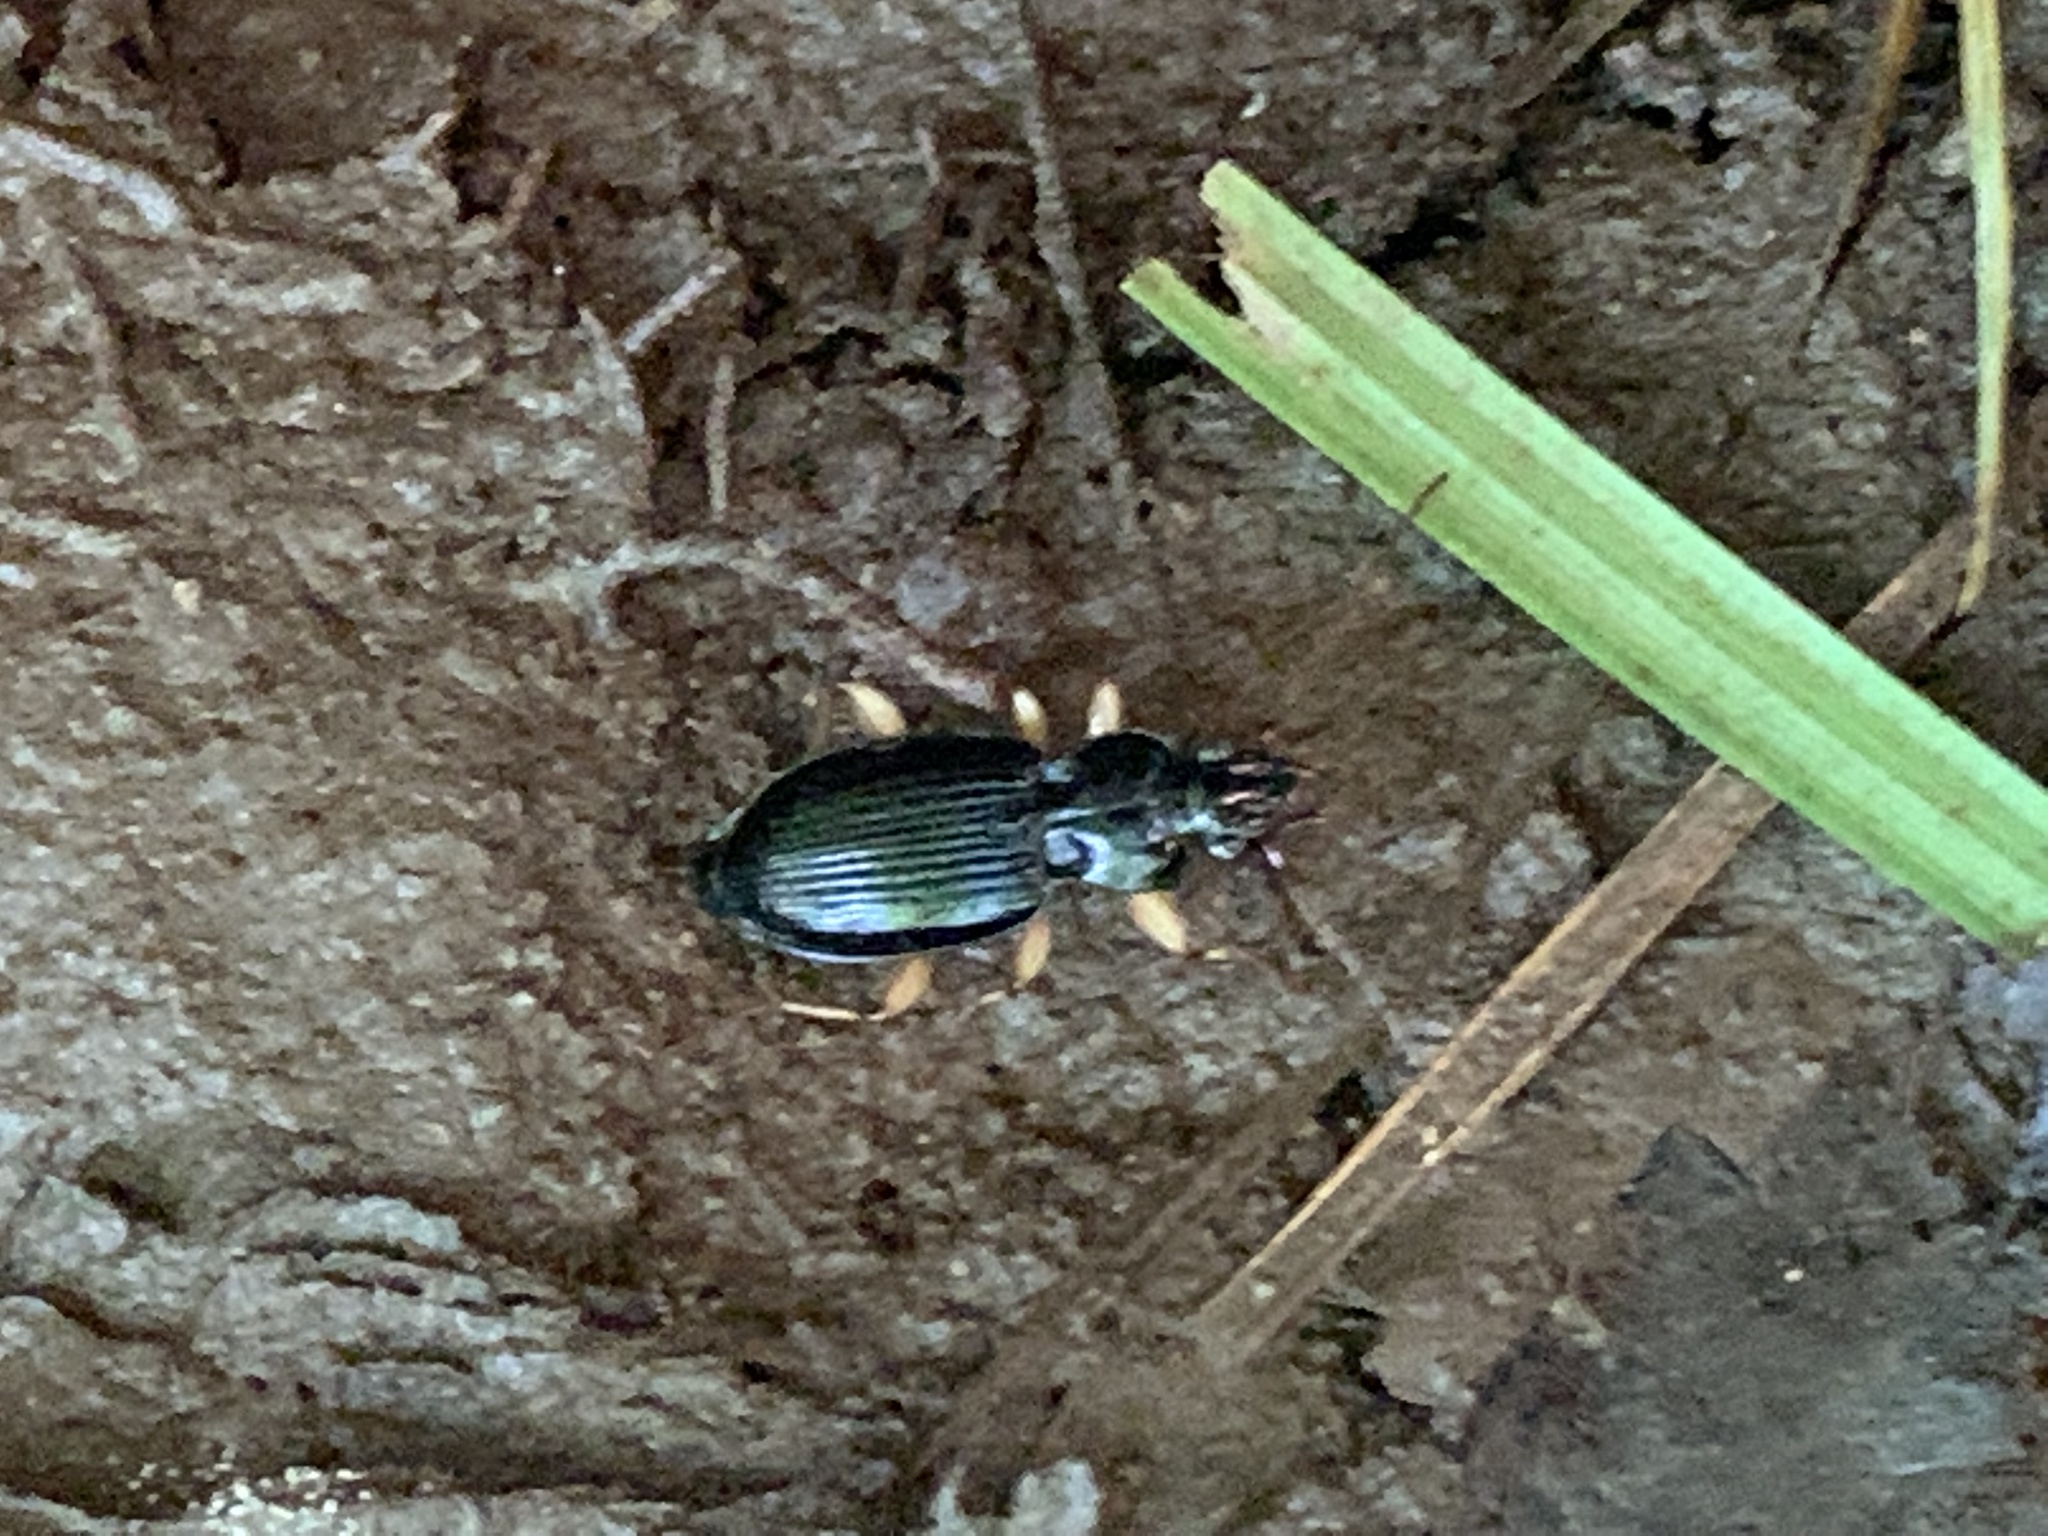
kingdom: Animalia
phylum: Arthropoda
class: Insecta
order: Coleoptera
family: Carabidae
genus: Patrobus
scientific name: Patrobus longicornis
